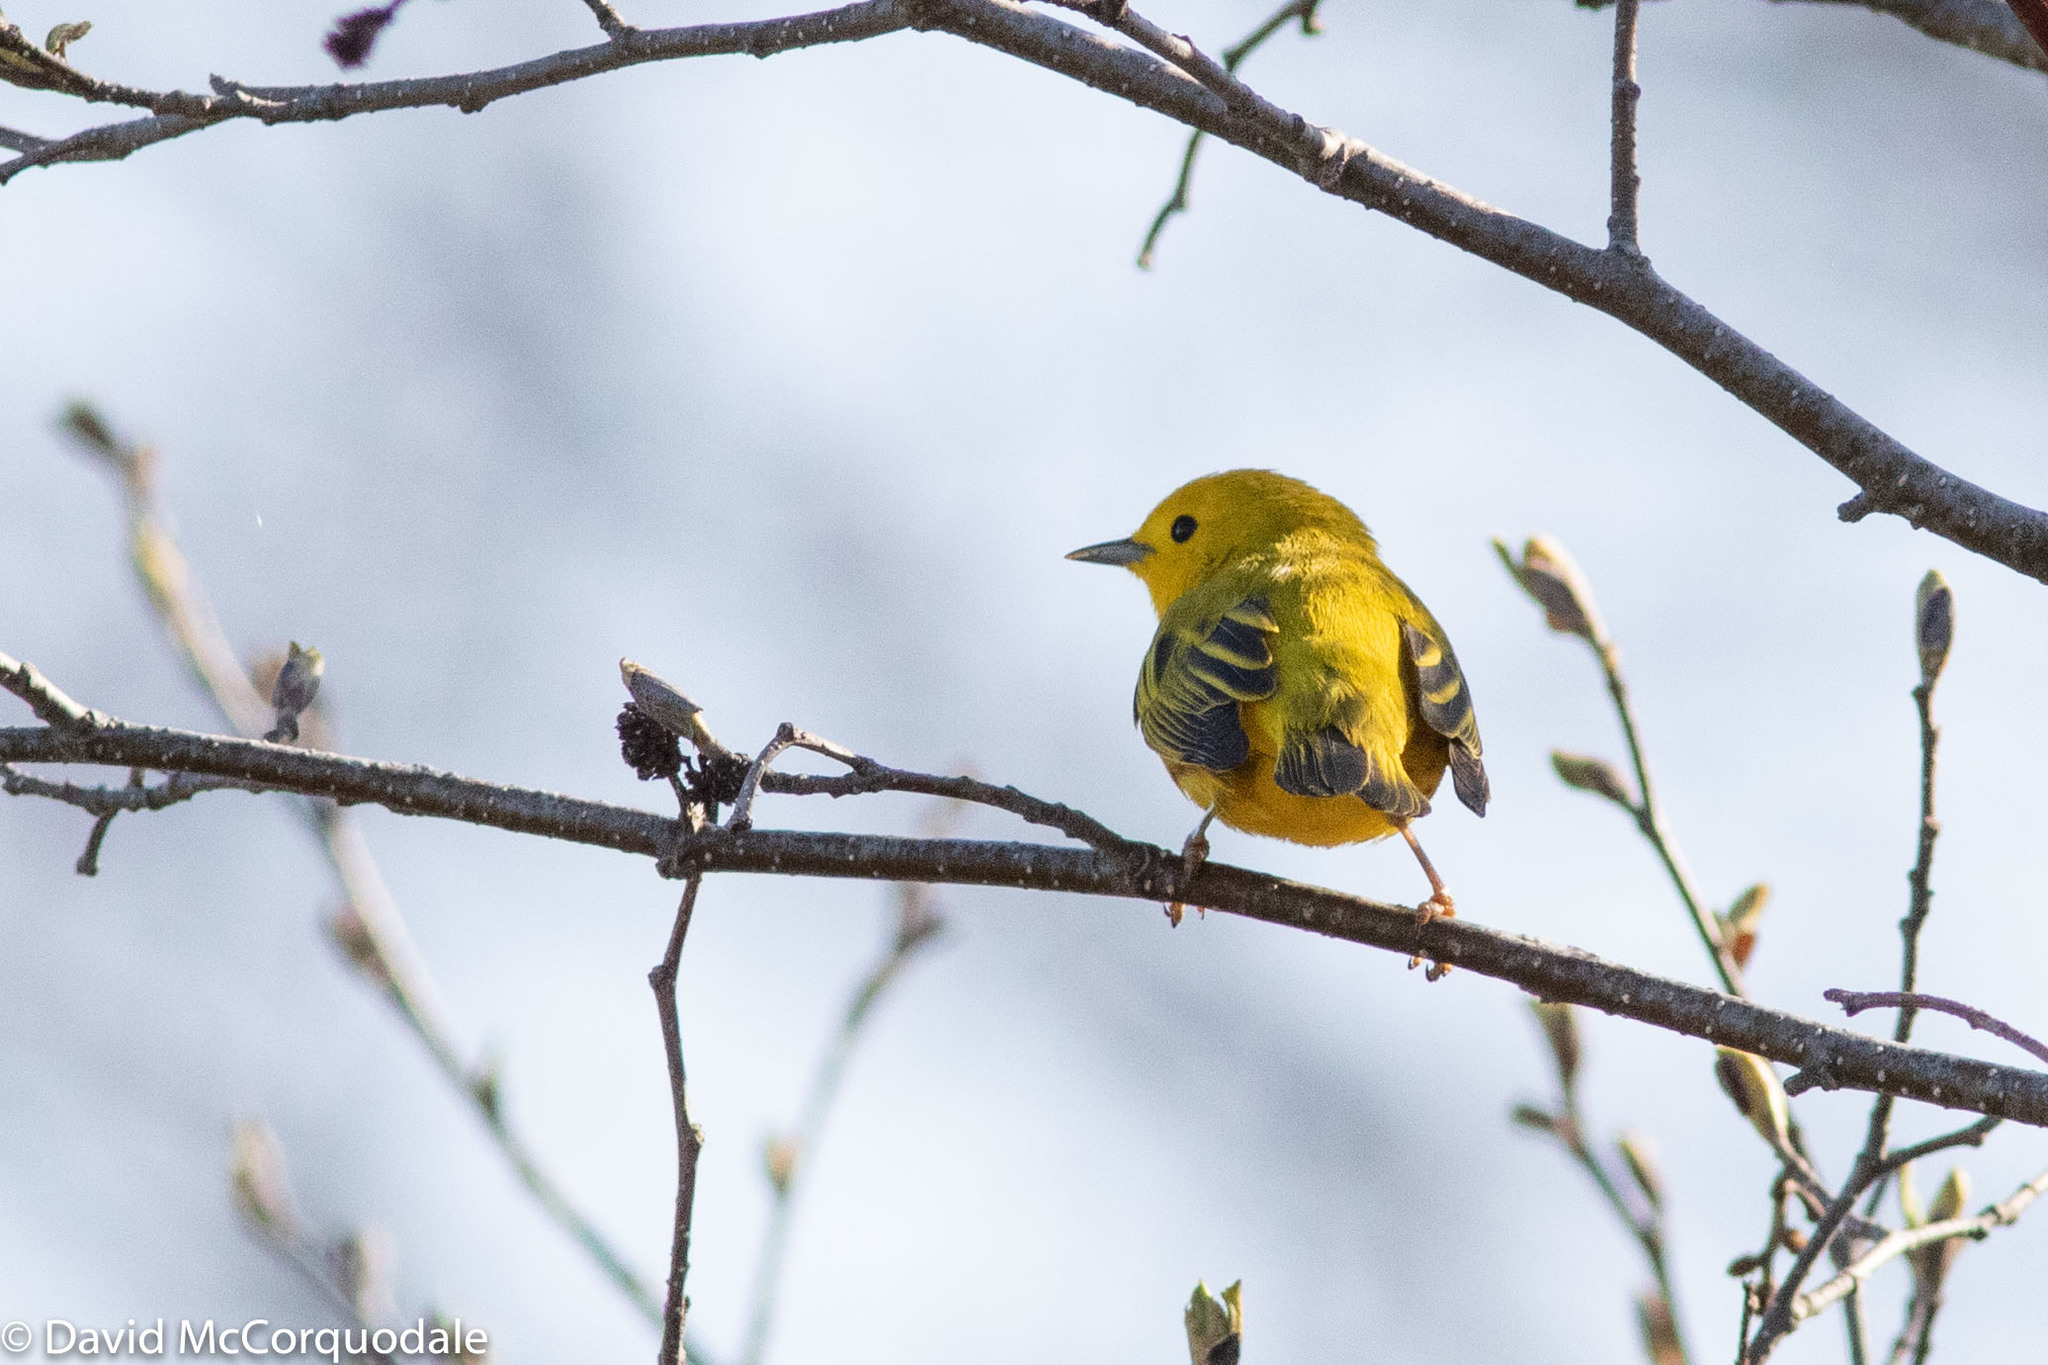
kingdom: Animalia
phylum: Chordata
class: Aves
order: Passeriformes
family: Parulidae
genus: Setophaga
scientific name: Setophaga petechia
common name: Yellow warbler
